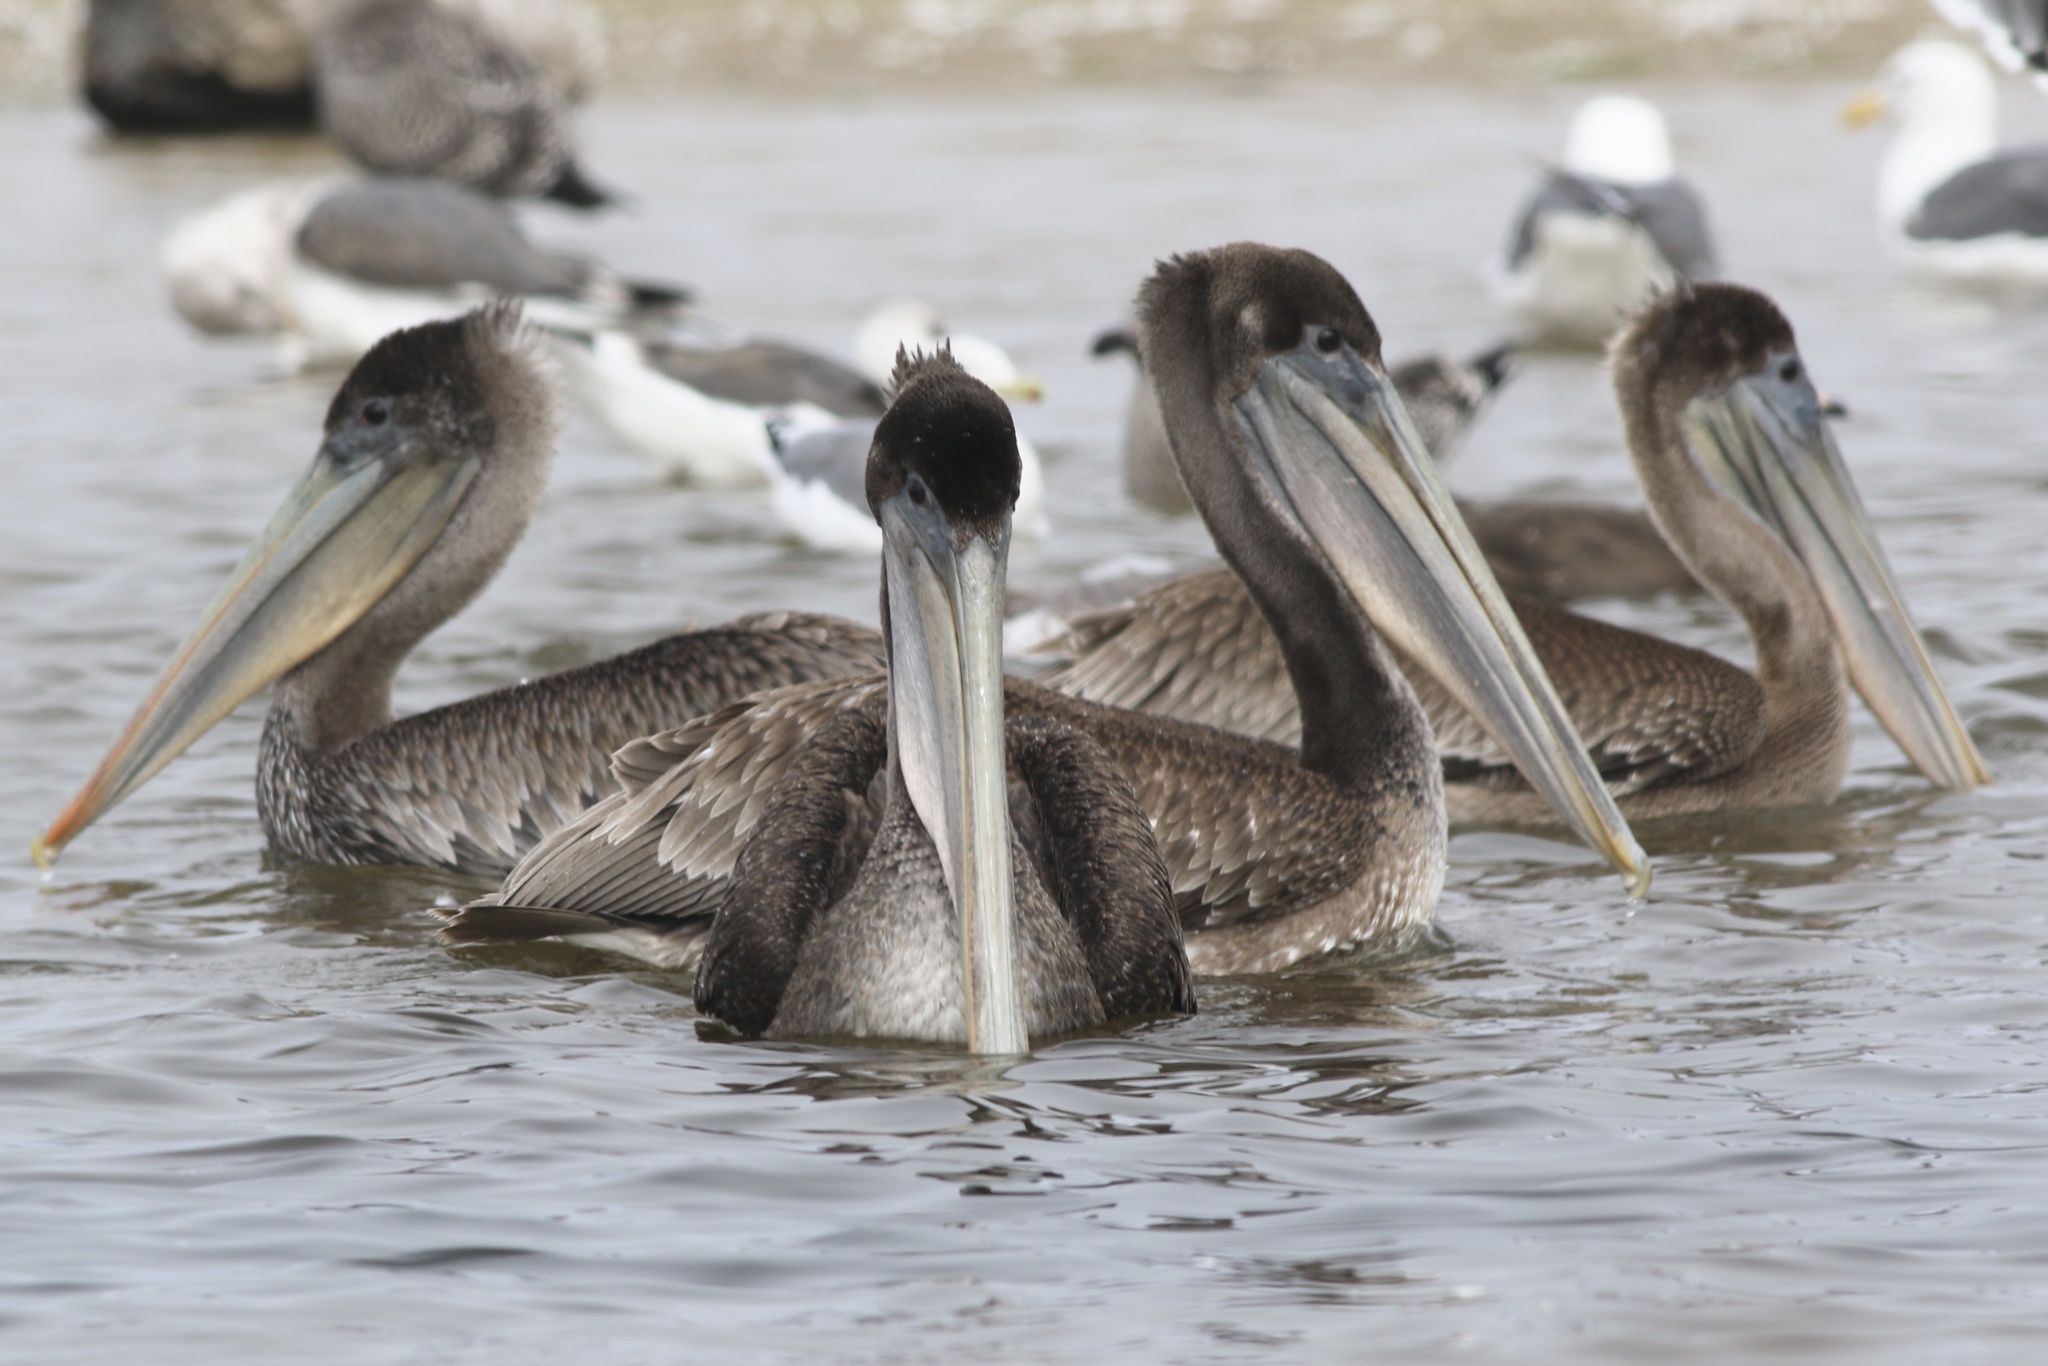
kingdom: Animalia
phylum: Chordata
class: Aves
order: Pelecaniformes
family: Pelecanidae
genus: Pelecanus
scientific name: Pelecanus occidentalis
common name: Brown pelican
